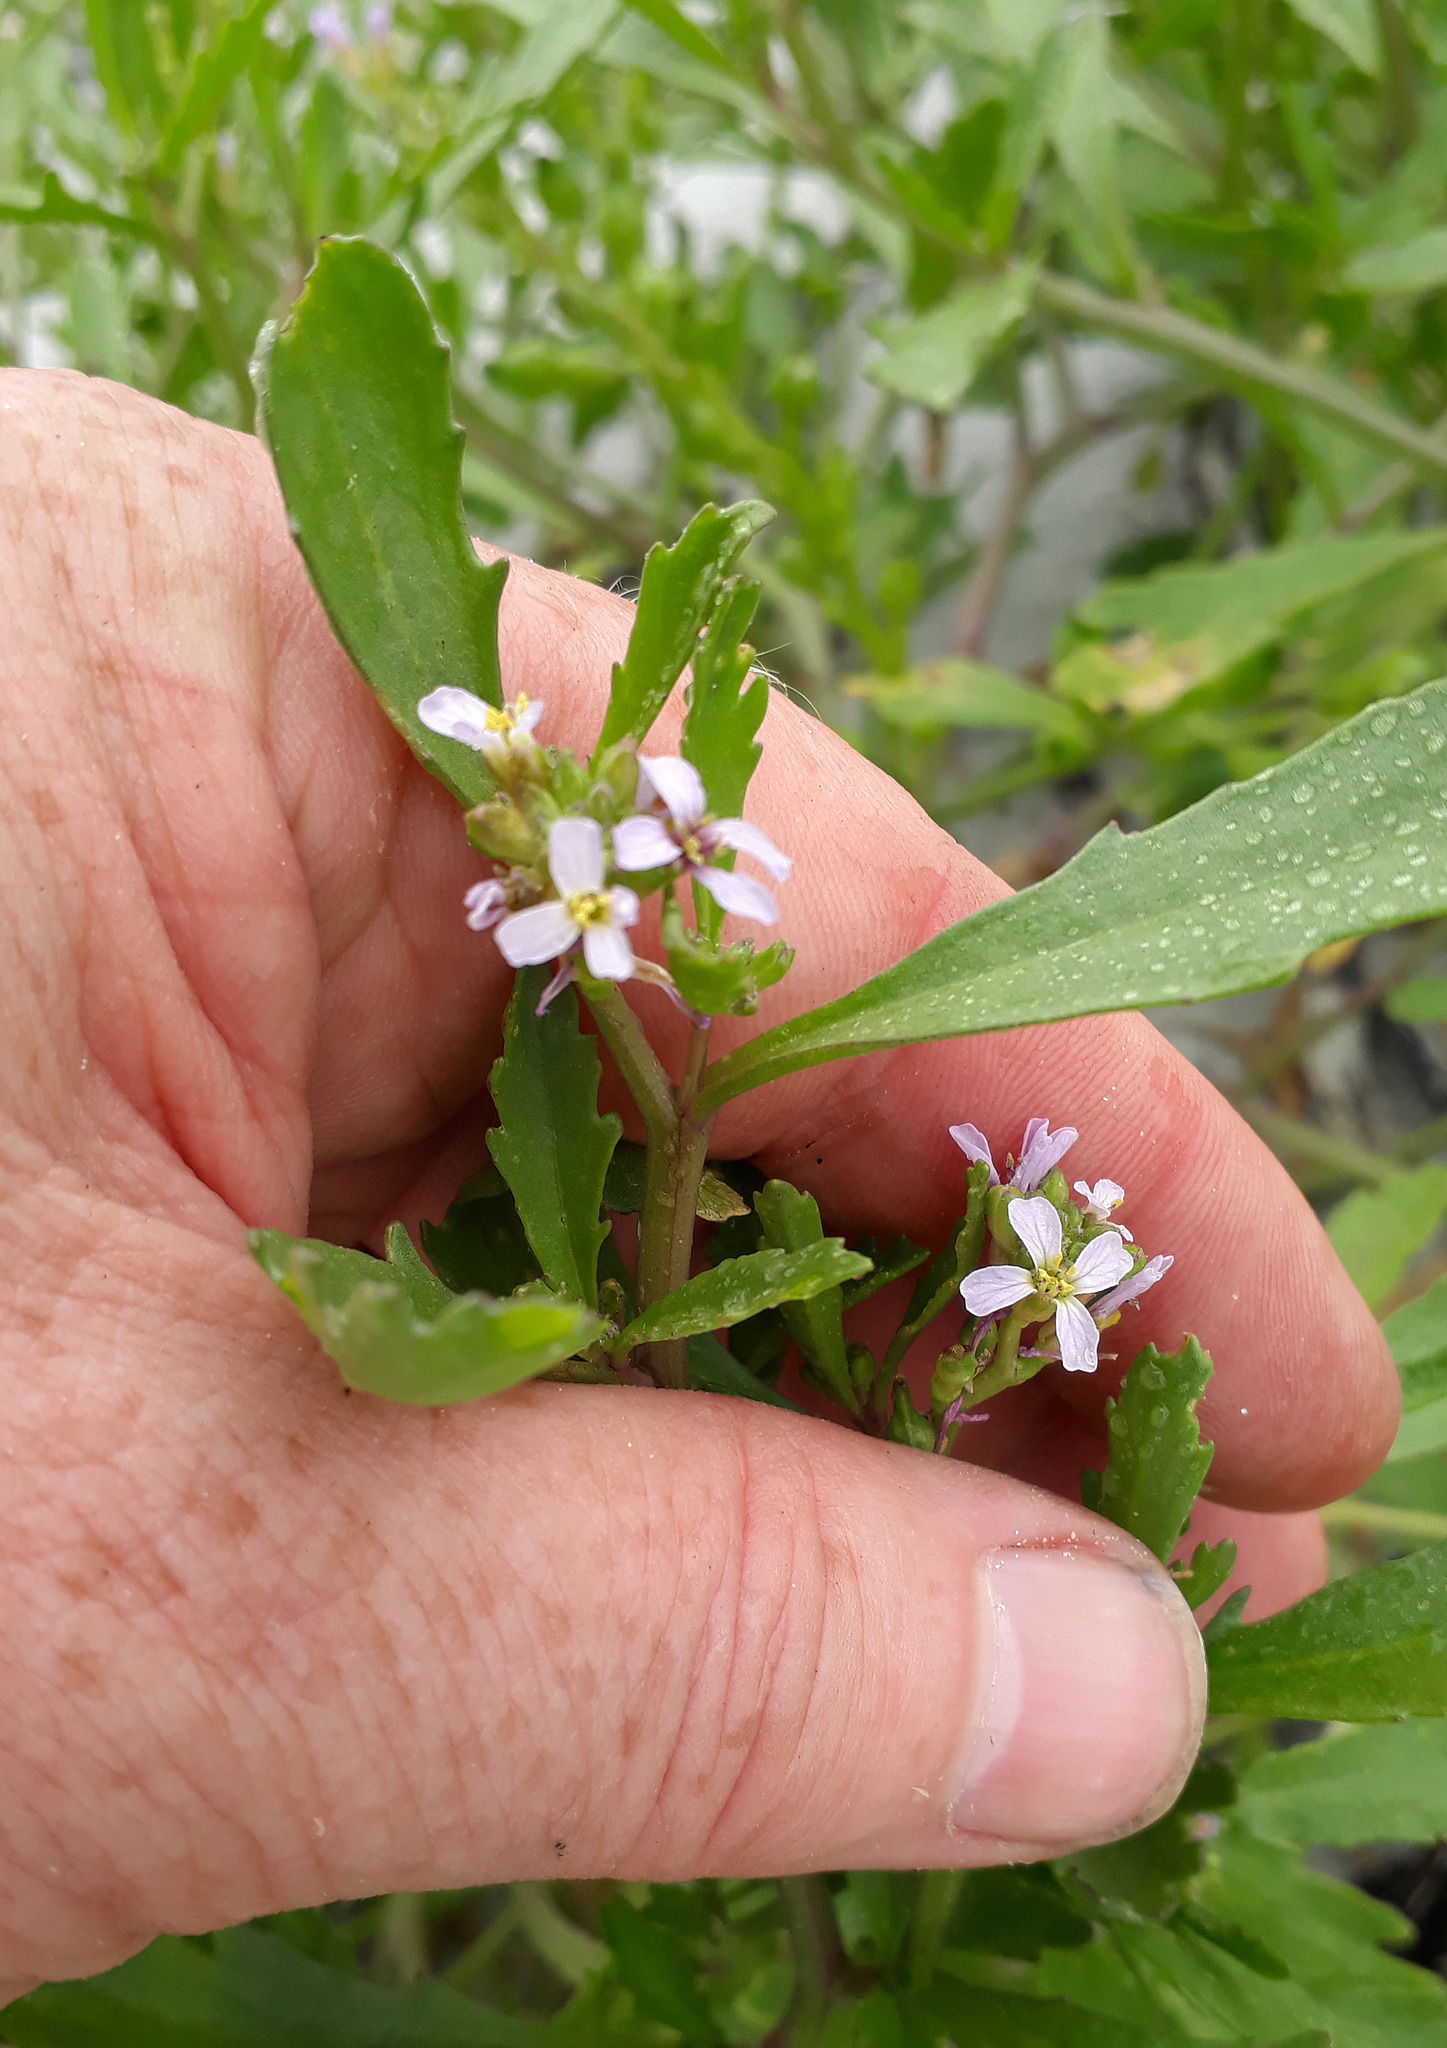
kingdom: Plantae
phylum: Tracheophyta
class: Magnoliopsida
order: Brassicales
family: Brassicaceae
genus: Cakile
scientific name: Cakile edentula
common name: American sea rocket
